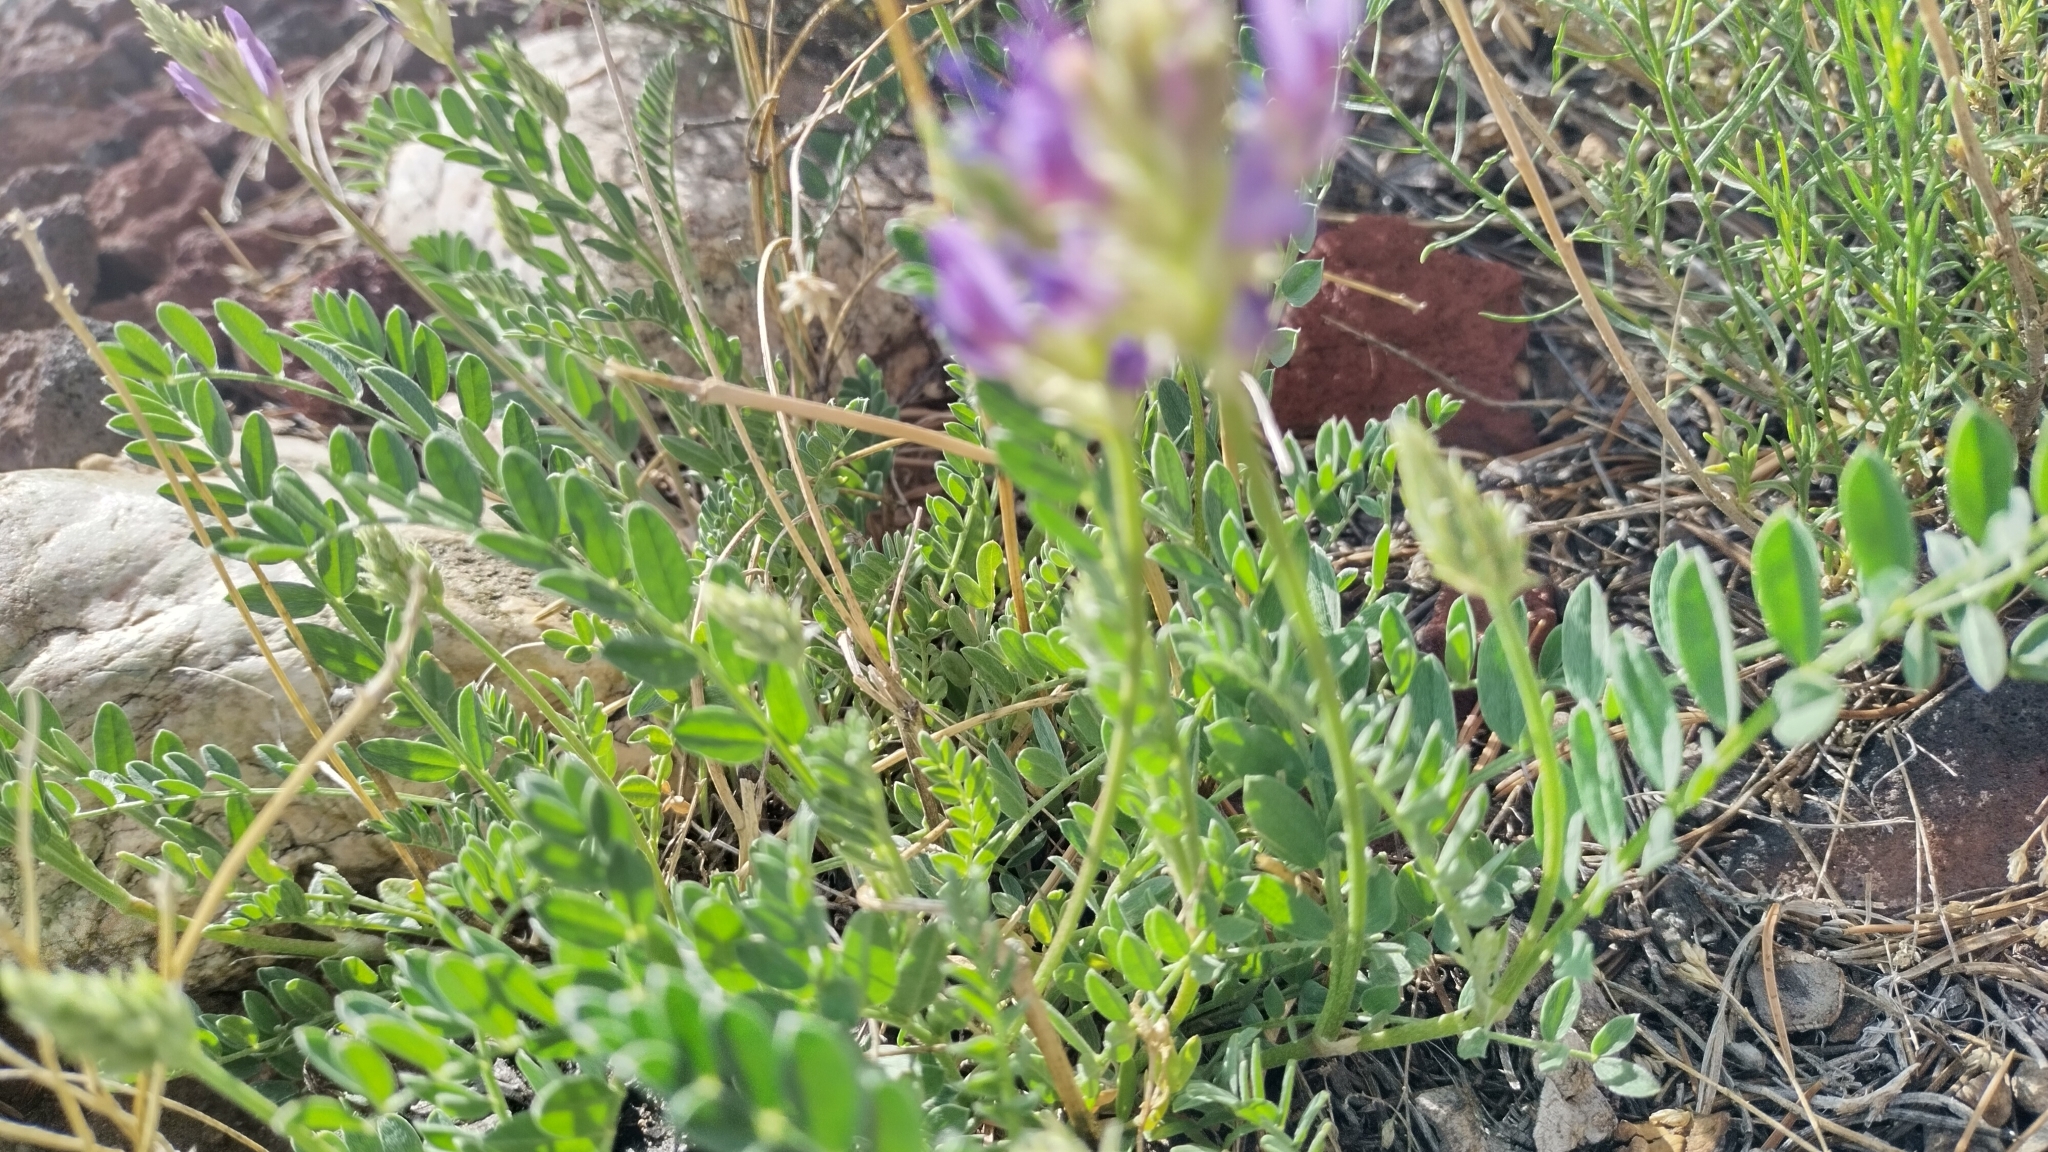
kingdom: Plantae
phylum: Tracheophyta
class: Magnoliopsida
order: Fabales
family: Fabaceae
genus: Astragalus
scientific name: Astragalus laxmannii
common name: Laxmann's milk-vetch
